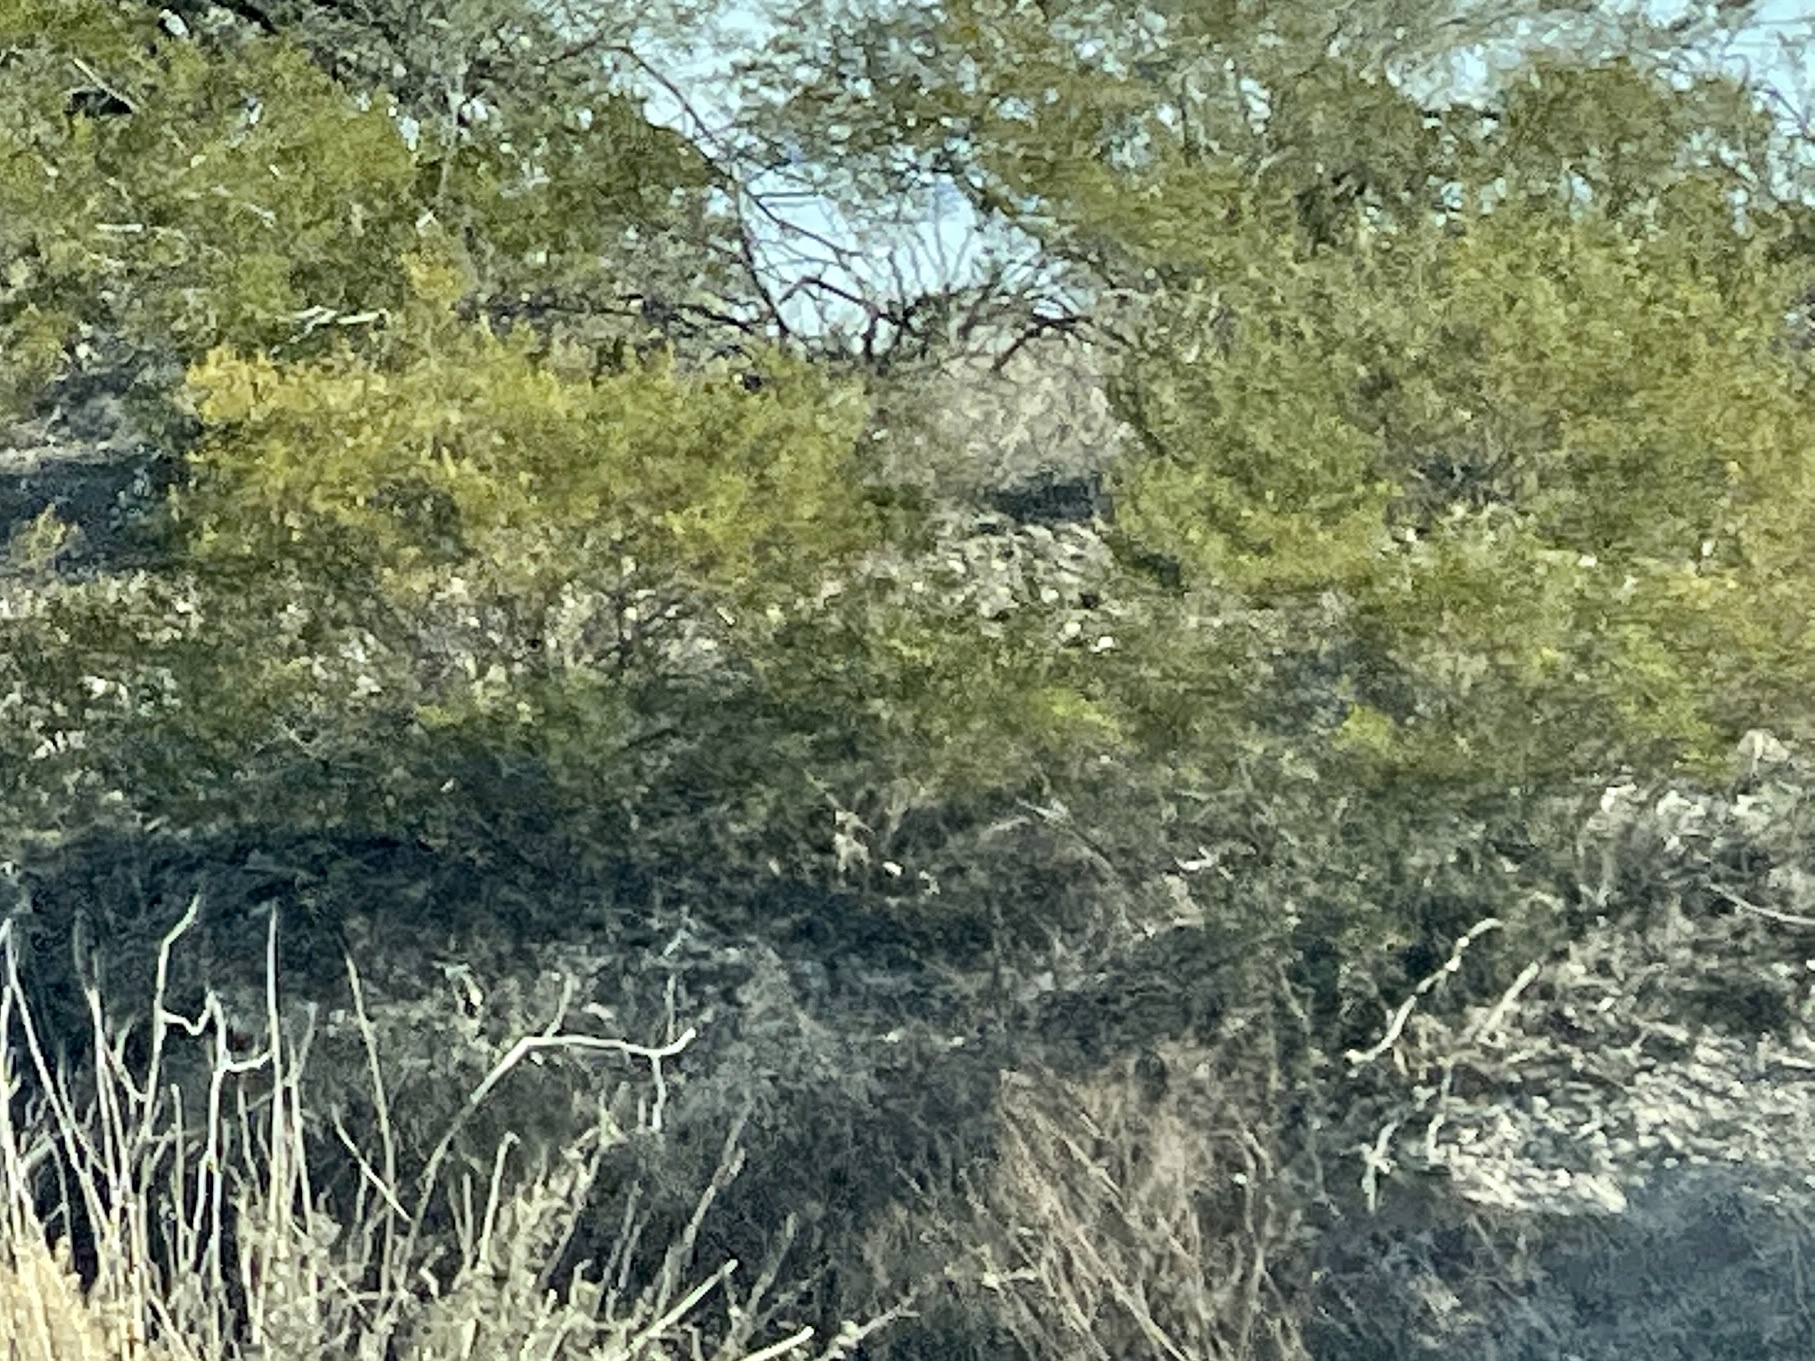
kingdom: Plantae
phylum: Tracheophyta
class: Magnoliopsida
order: Zygophyllales
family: Zygophyllaceae
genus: Larrea
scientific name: Larrea tridentata
